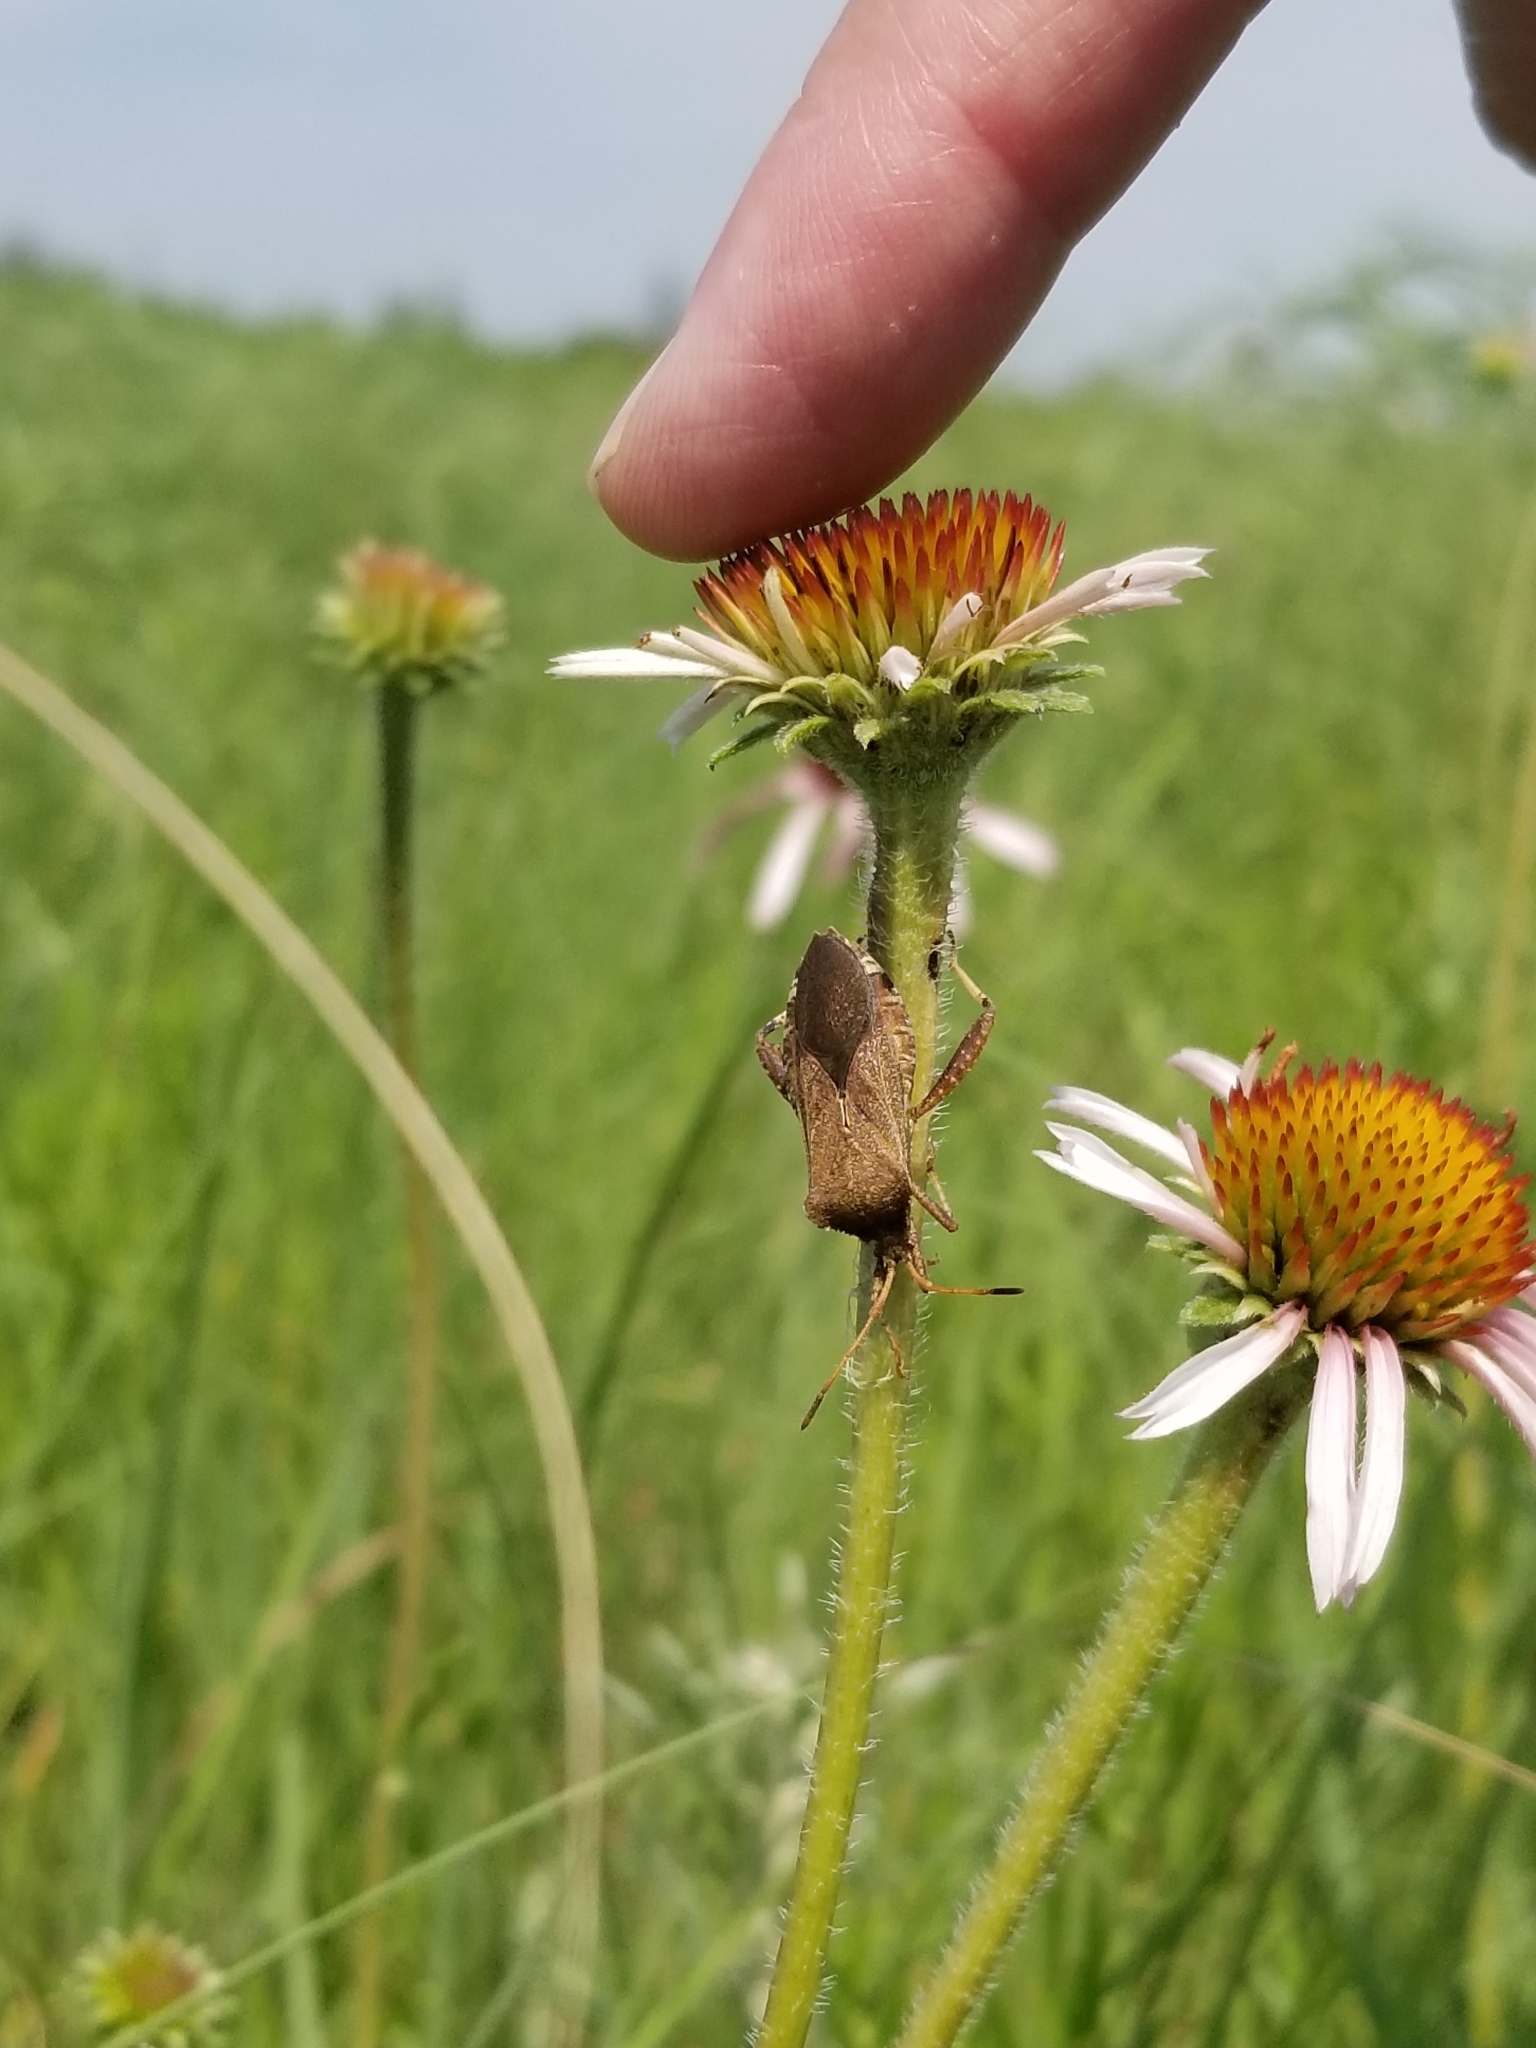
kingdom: Animalia
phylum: Arthropoda
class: Insecta
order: Hemiptera
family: Coreidae
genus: Euthochtha
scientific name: Euthochtha galeator
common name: Helmeted squash bug
